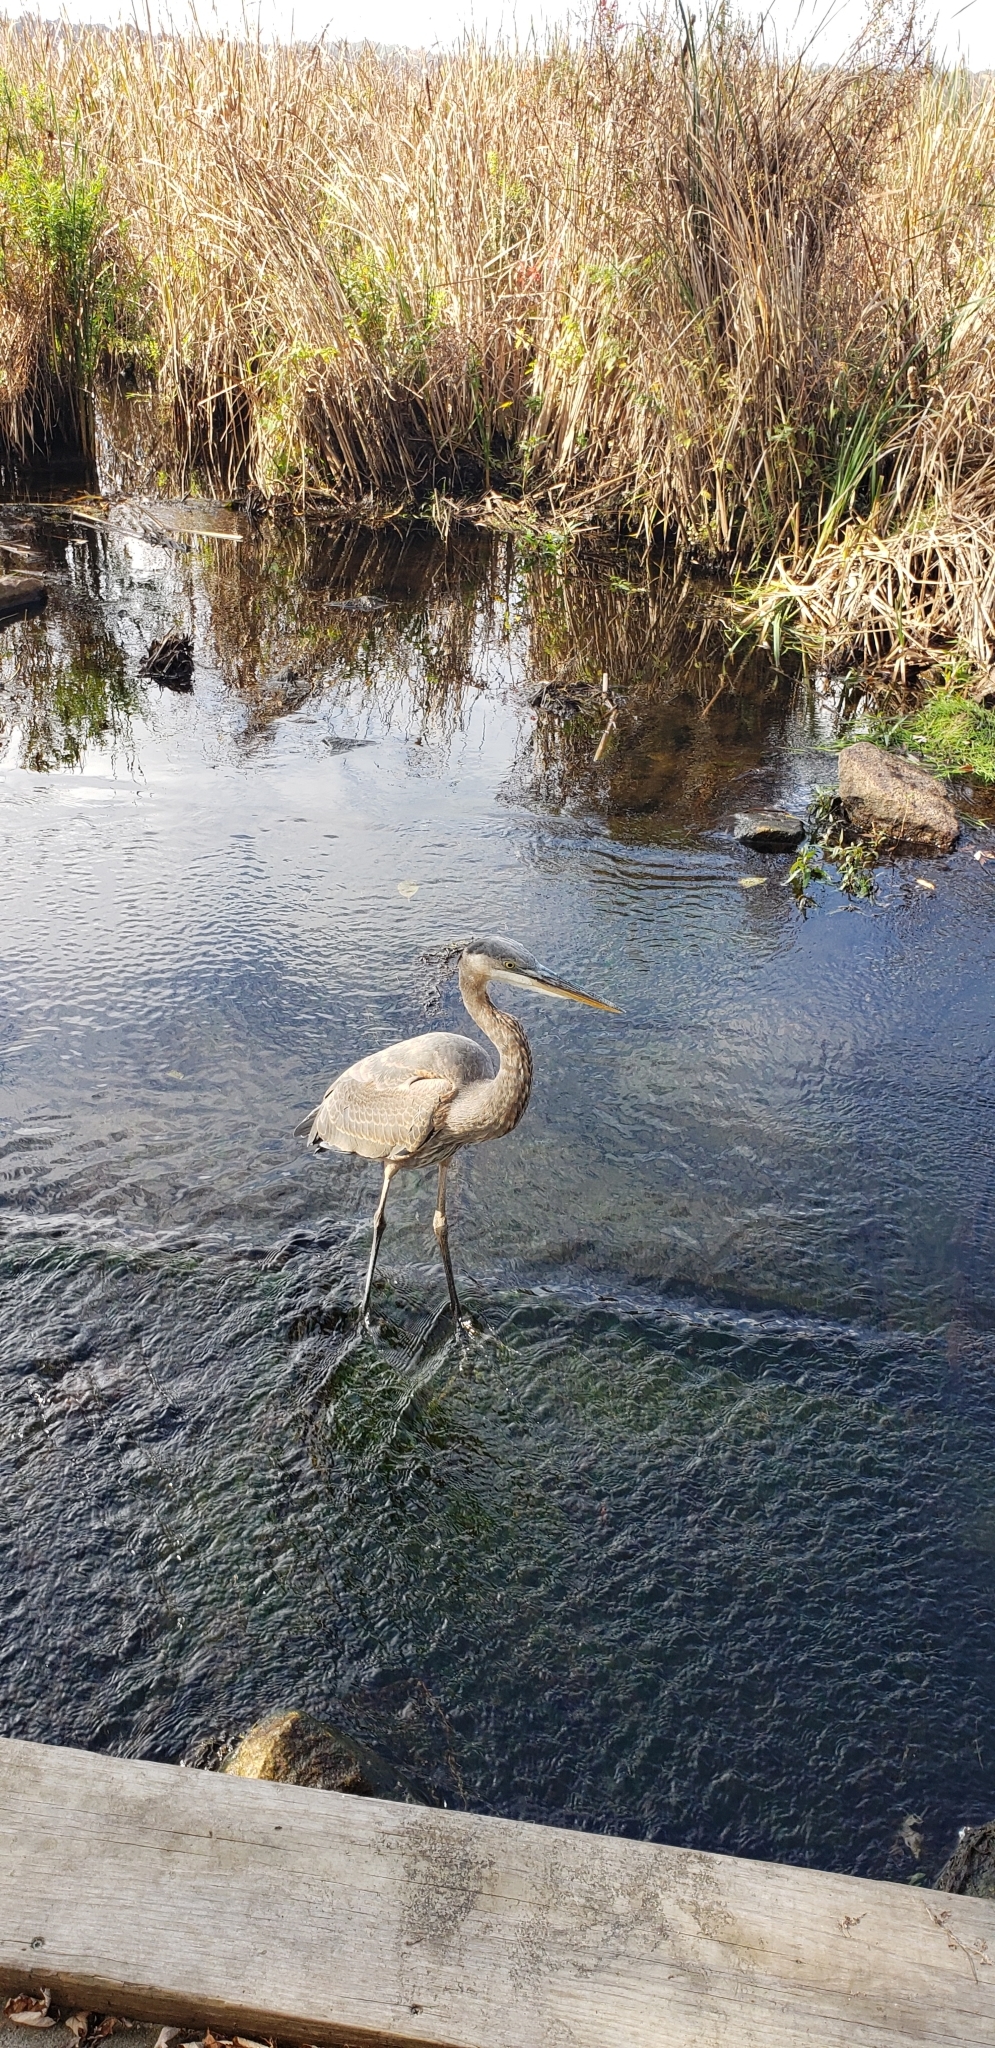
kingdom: Animalia
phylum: Chordata
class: Aves
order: Pelecaniformes
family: Ardeidae
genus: Ardea
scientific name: Ardea herodias
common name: Great blue heron
